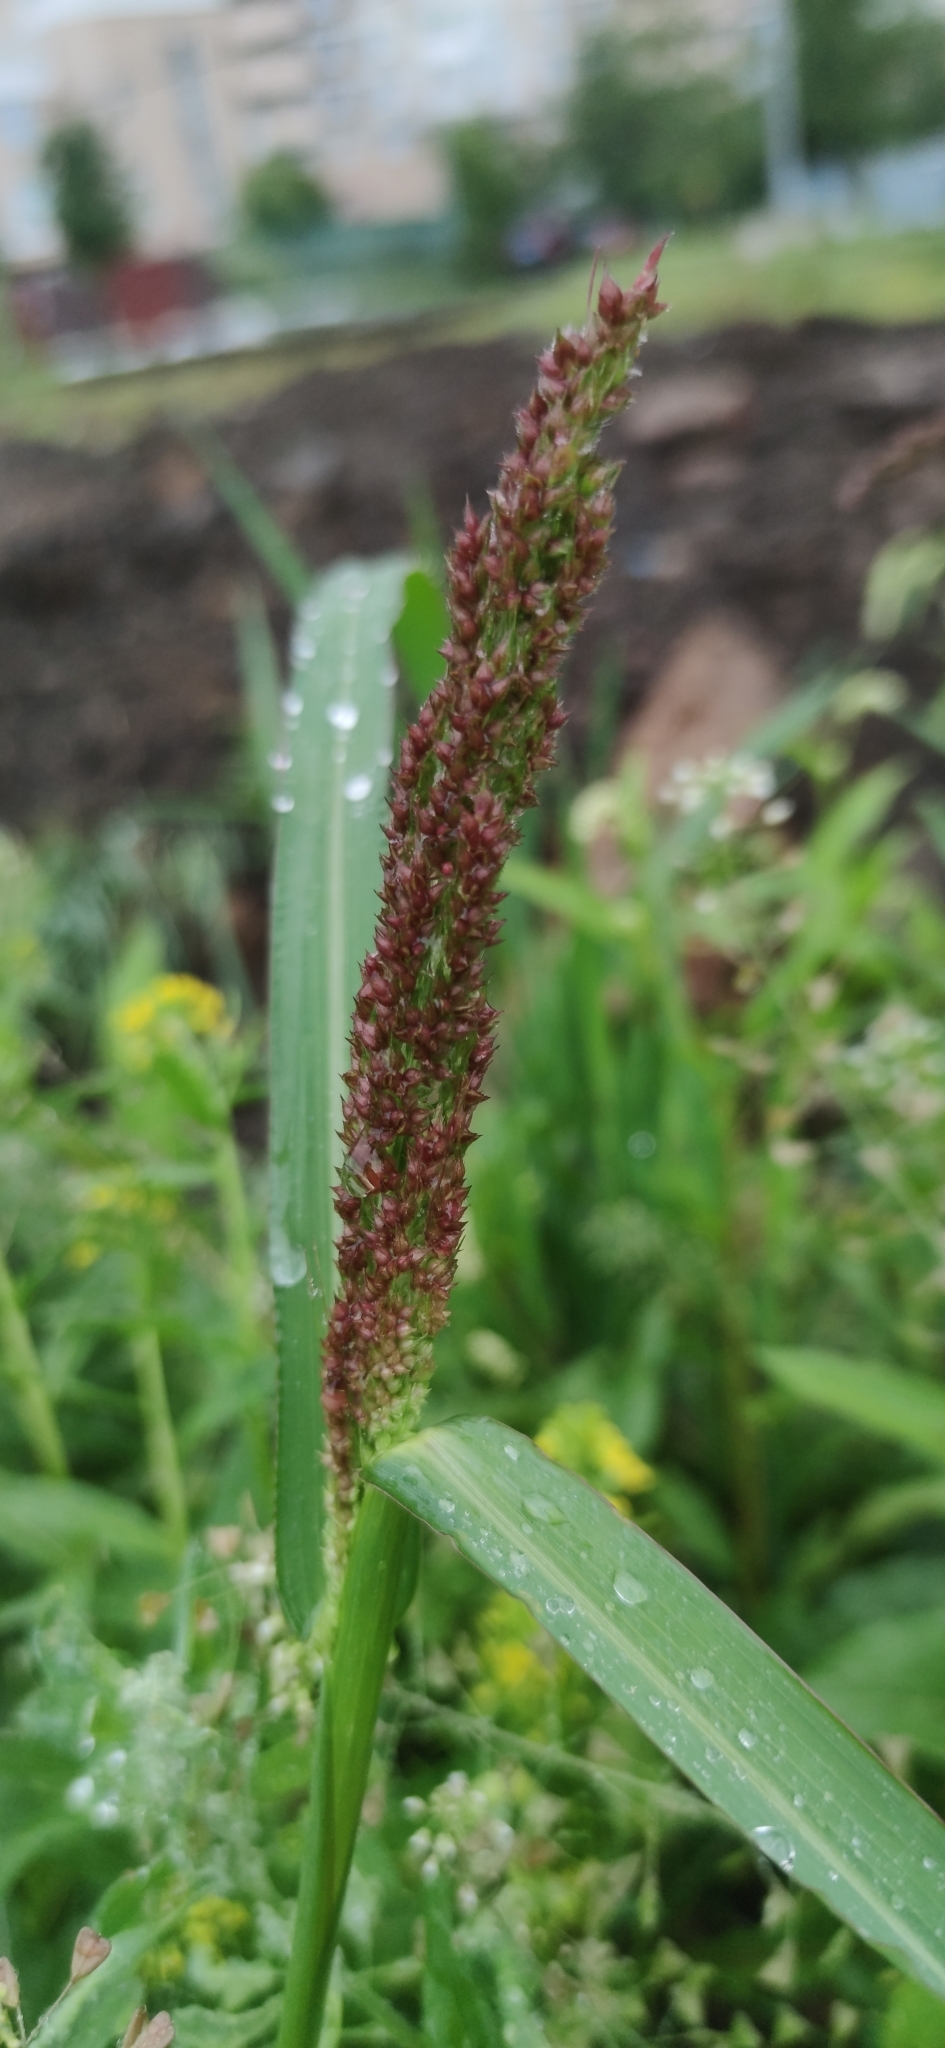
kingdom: Plantae
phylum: Tracheophyta
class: Liliopsida
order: Poales
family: Poaceae
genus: Echinochloa
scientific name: Echinochloa crus-galli
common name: Cockspur
